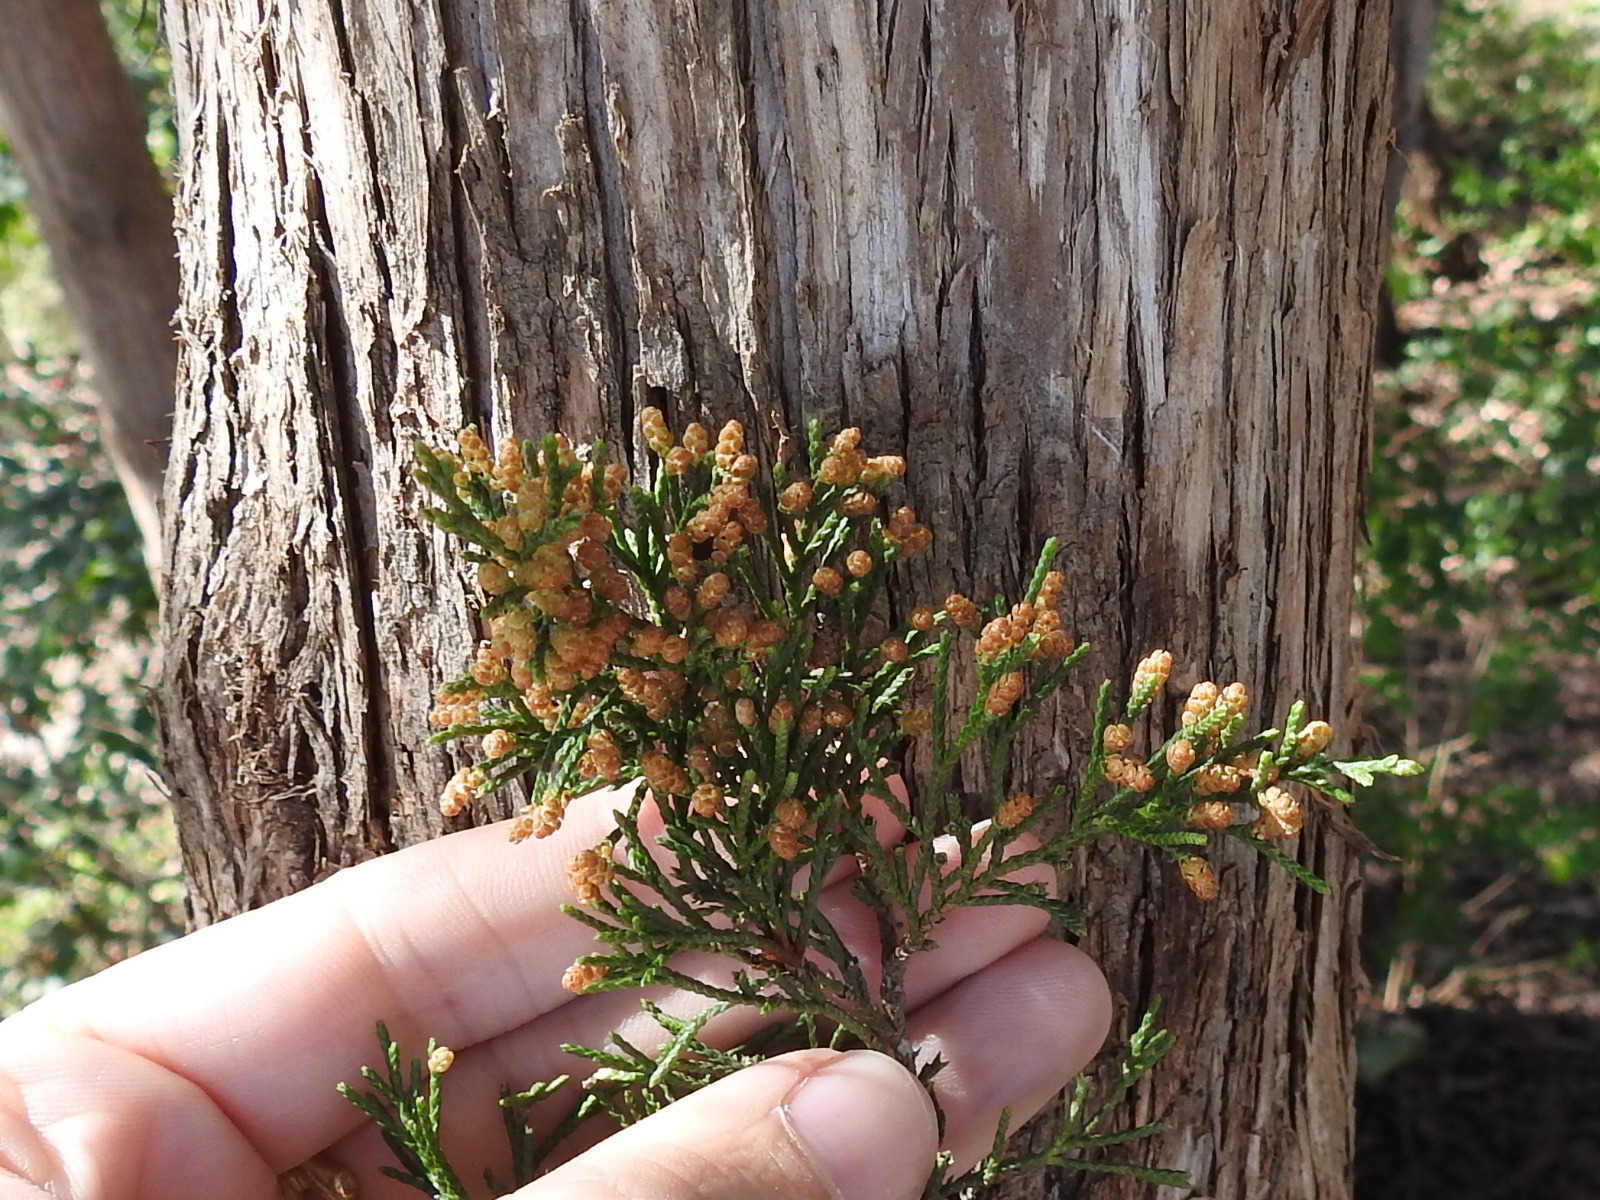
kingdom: Plantae
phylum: Tracheophyta
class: Pinopsida
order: Pinales
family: Cupressaceae
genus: Juniperus
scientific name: Juniperus virginiana
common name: Red juniper
